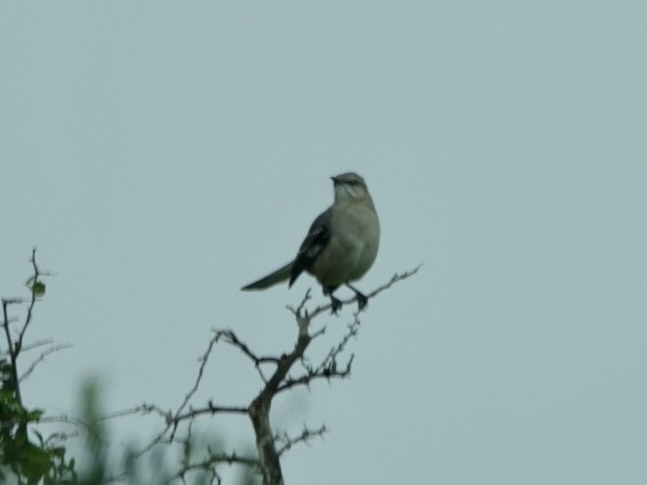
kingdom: Animalia
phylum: Chordata
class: Aves
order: Passeriformes
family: Mimidae
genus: Mimus
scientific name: Mimus polyglottos
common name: Northern mockingbird
